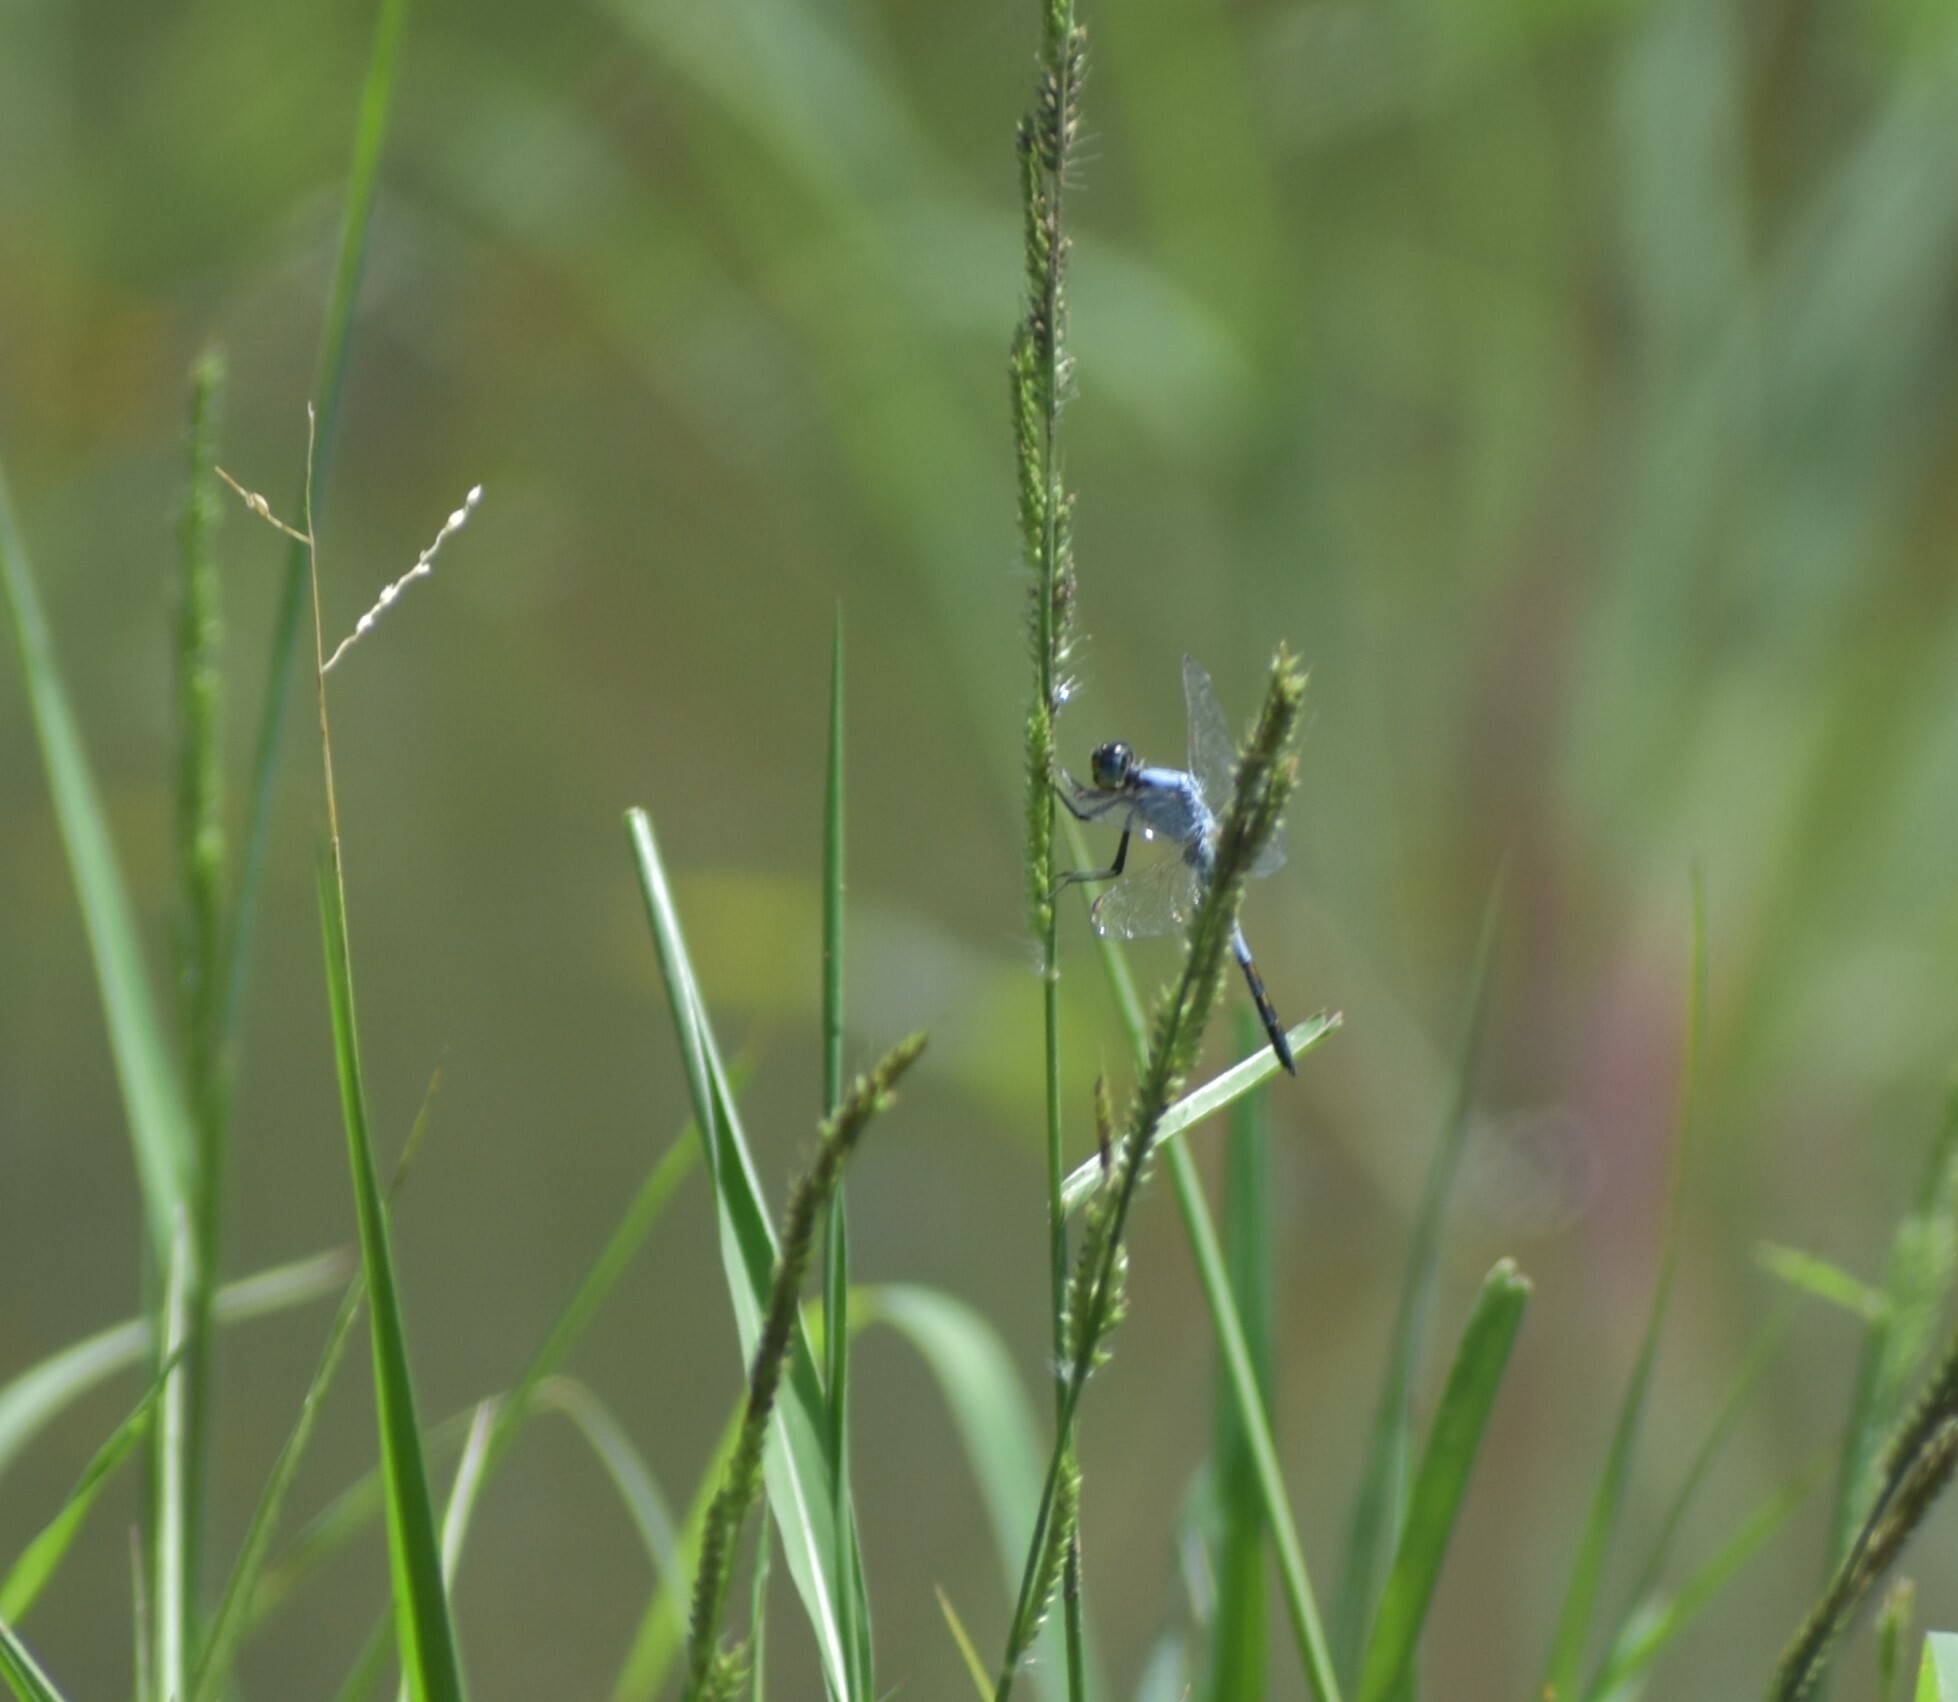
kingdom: Animalia
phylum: Arthropoda
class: Insecta
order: Odonata
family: Libellulidae
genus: Nesciothemis
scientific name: Nesciothemis farinosa
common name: Eastern blacktail
